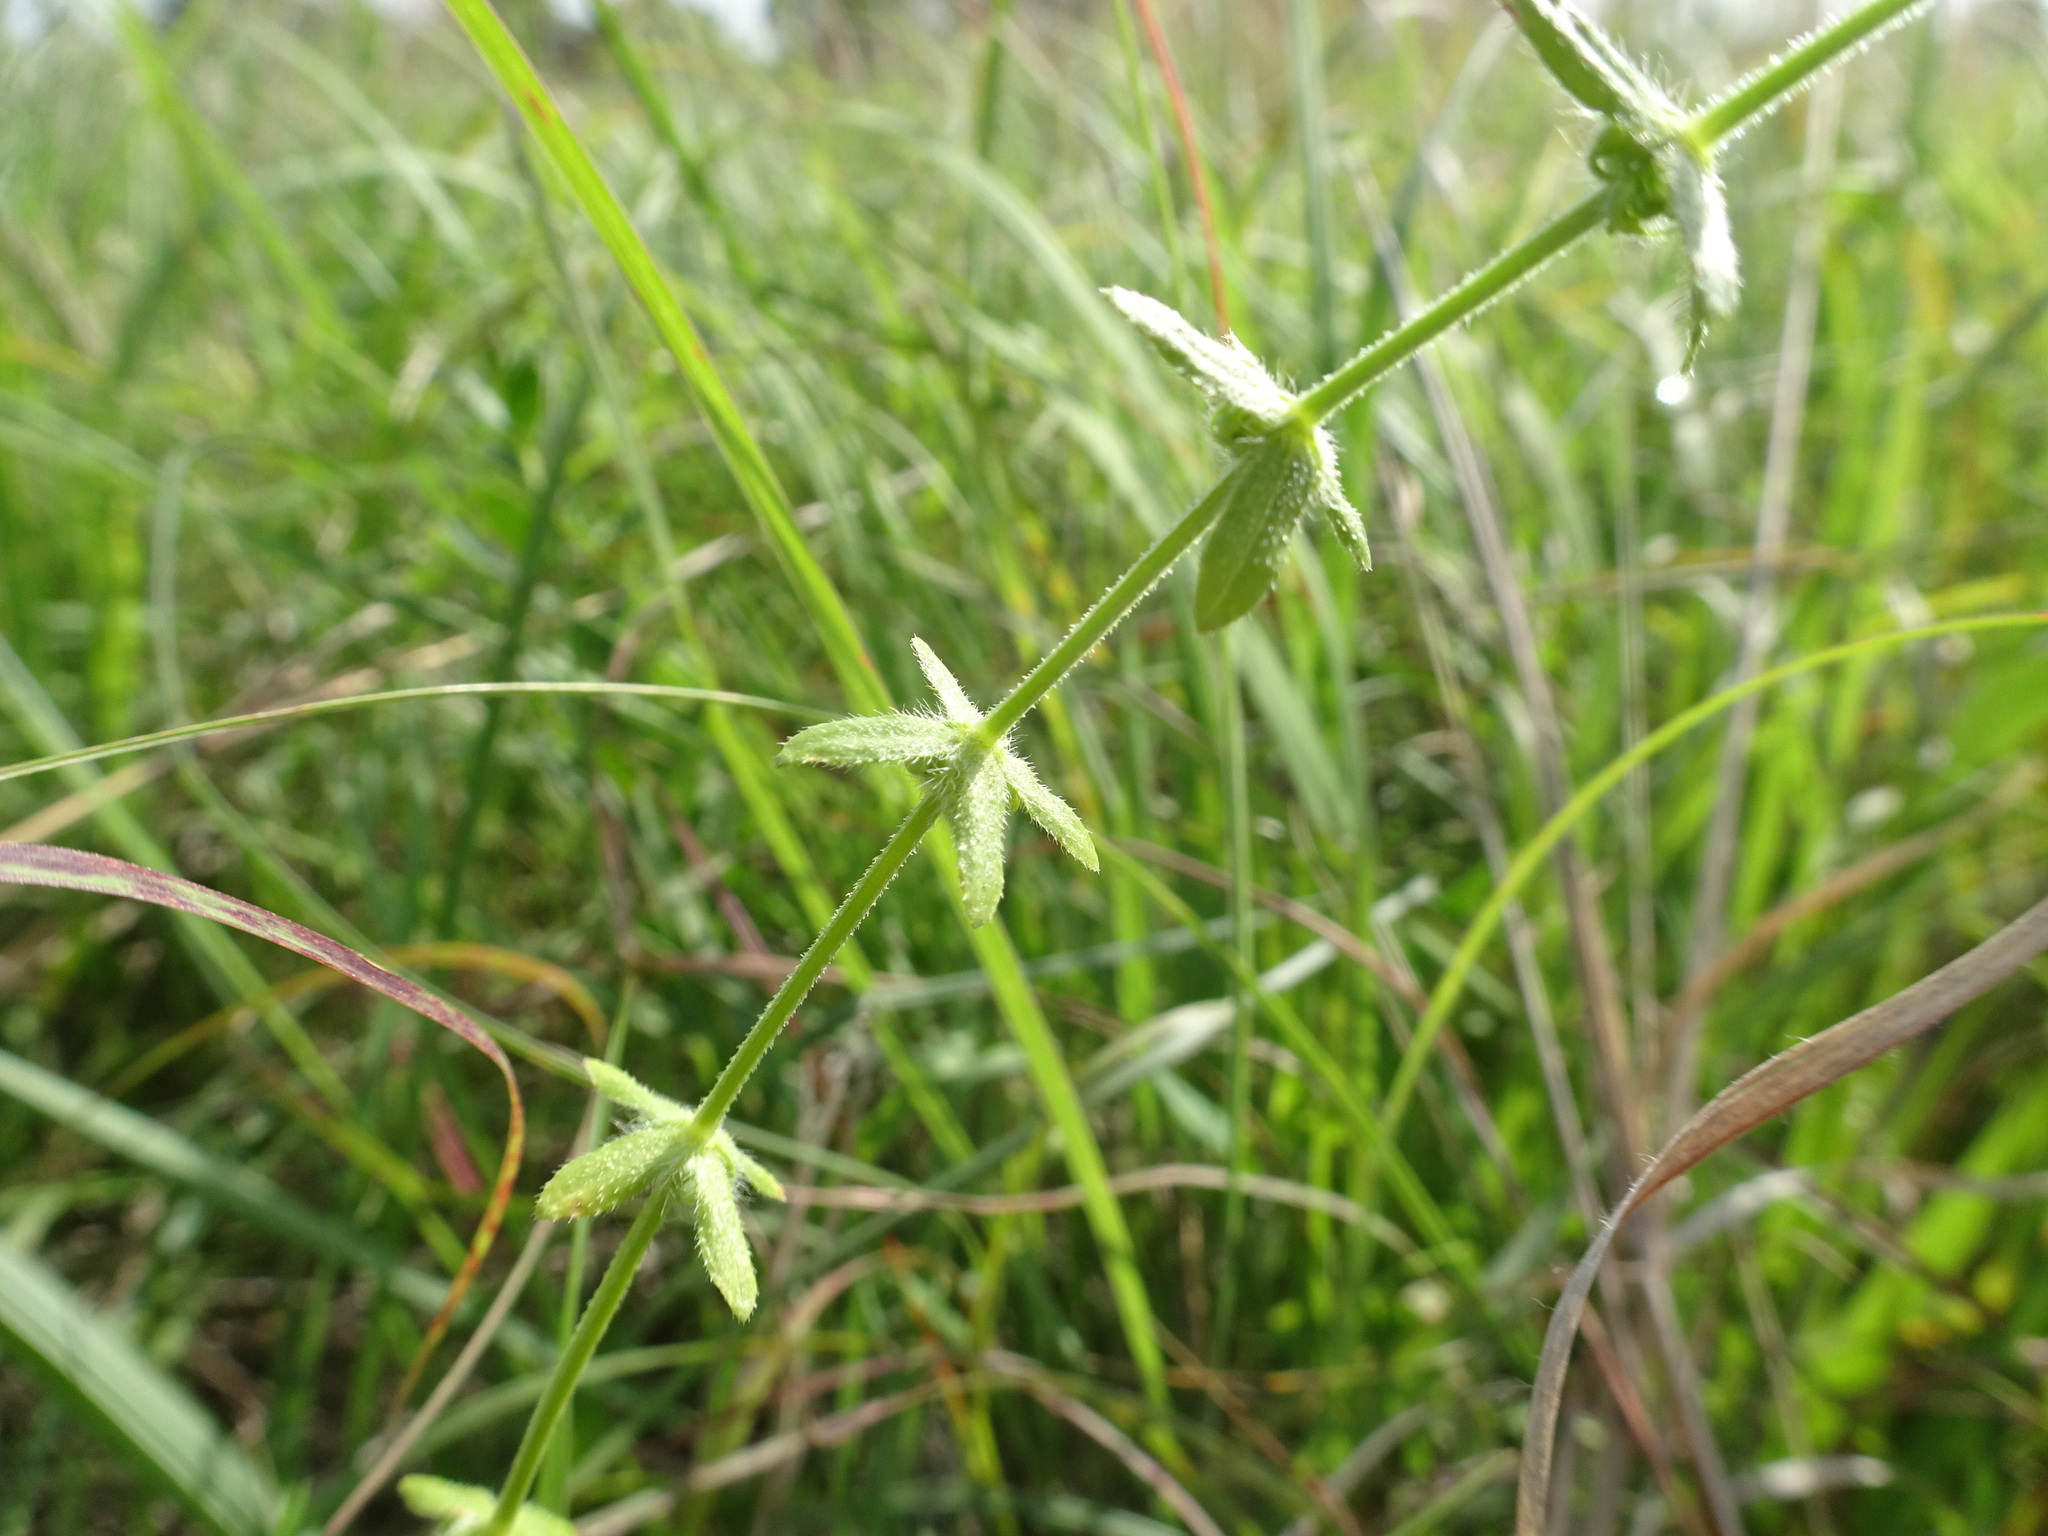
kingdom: Plantae
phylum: Tracheophyta
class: Magnoliopsida
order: Gentianales
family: Rubiaceae
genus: Cruciata
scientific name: Cruciata pedemontana
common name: Piedmont bedstraw
